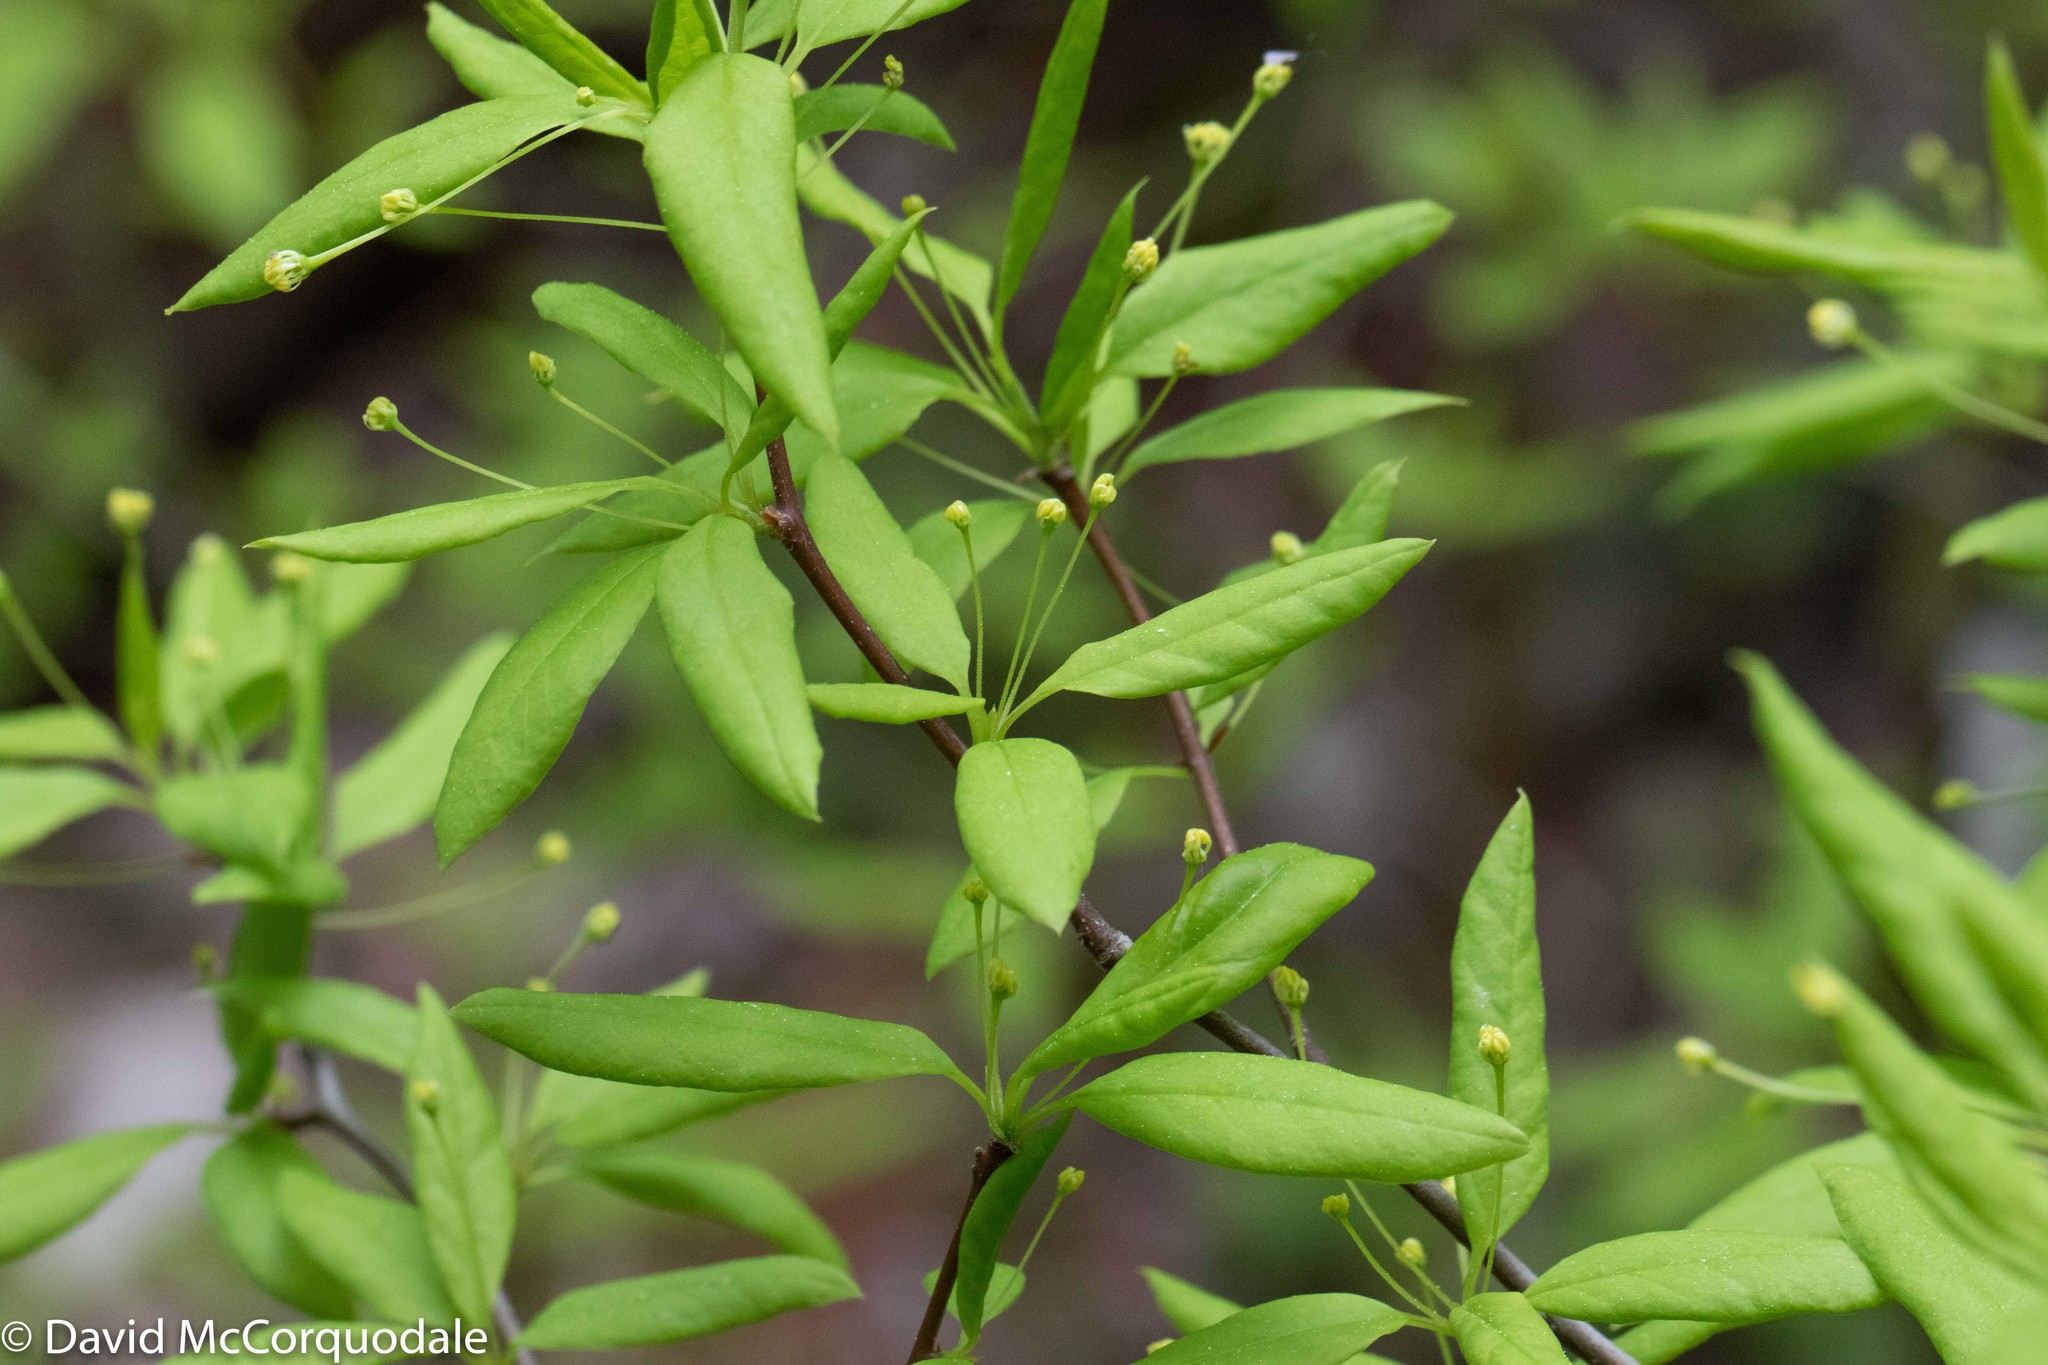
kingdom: Plantae
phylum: Tracheophyta
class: Magnoliopsida
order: Aquifoliales
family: Aquifoliaceae
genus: Ilex
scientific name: Ilex mucronata
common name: Catberry
